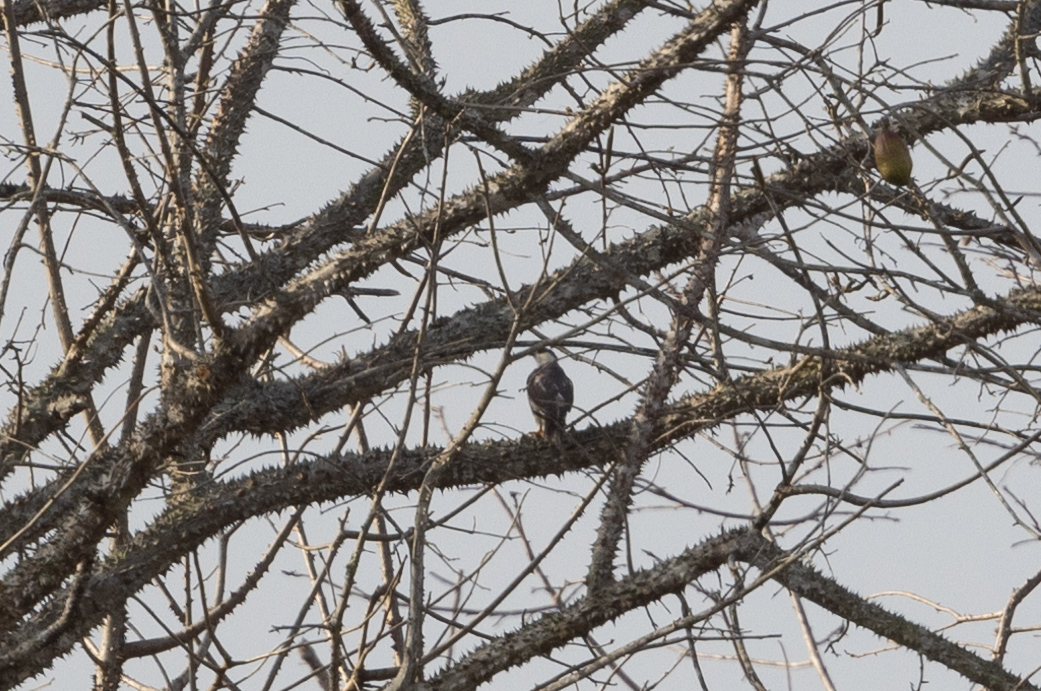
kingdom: Animalia
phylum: Chordata
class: Aves
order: Accipitriformes
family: Accipitridae
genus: Gampsonyx
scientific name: Gampsonyx swainsonii
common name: Pearl kite
